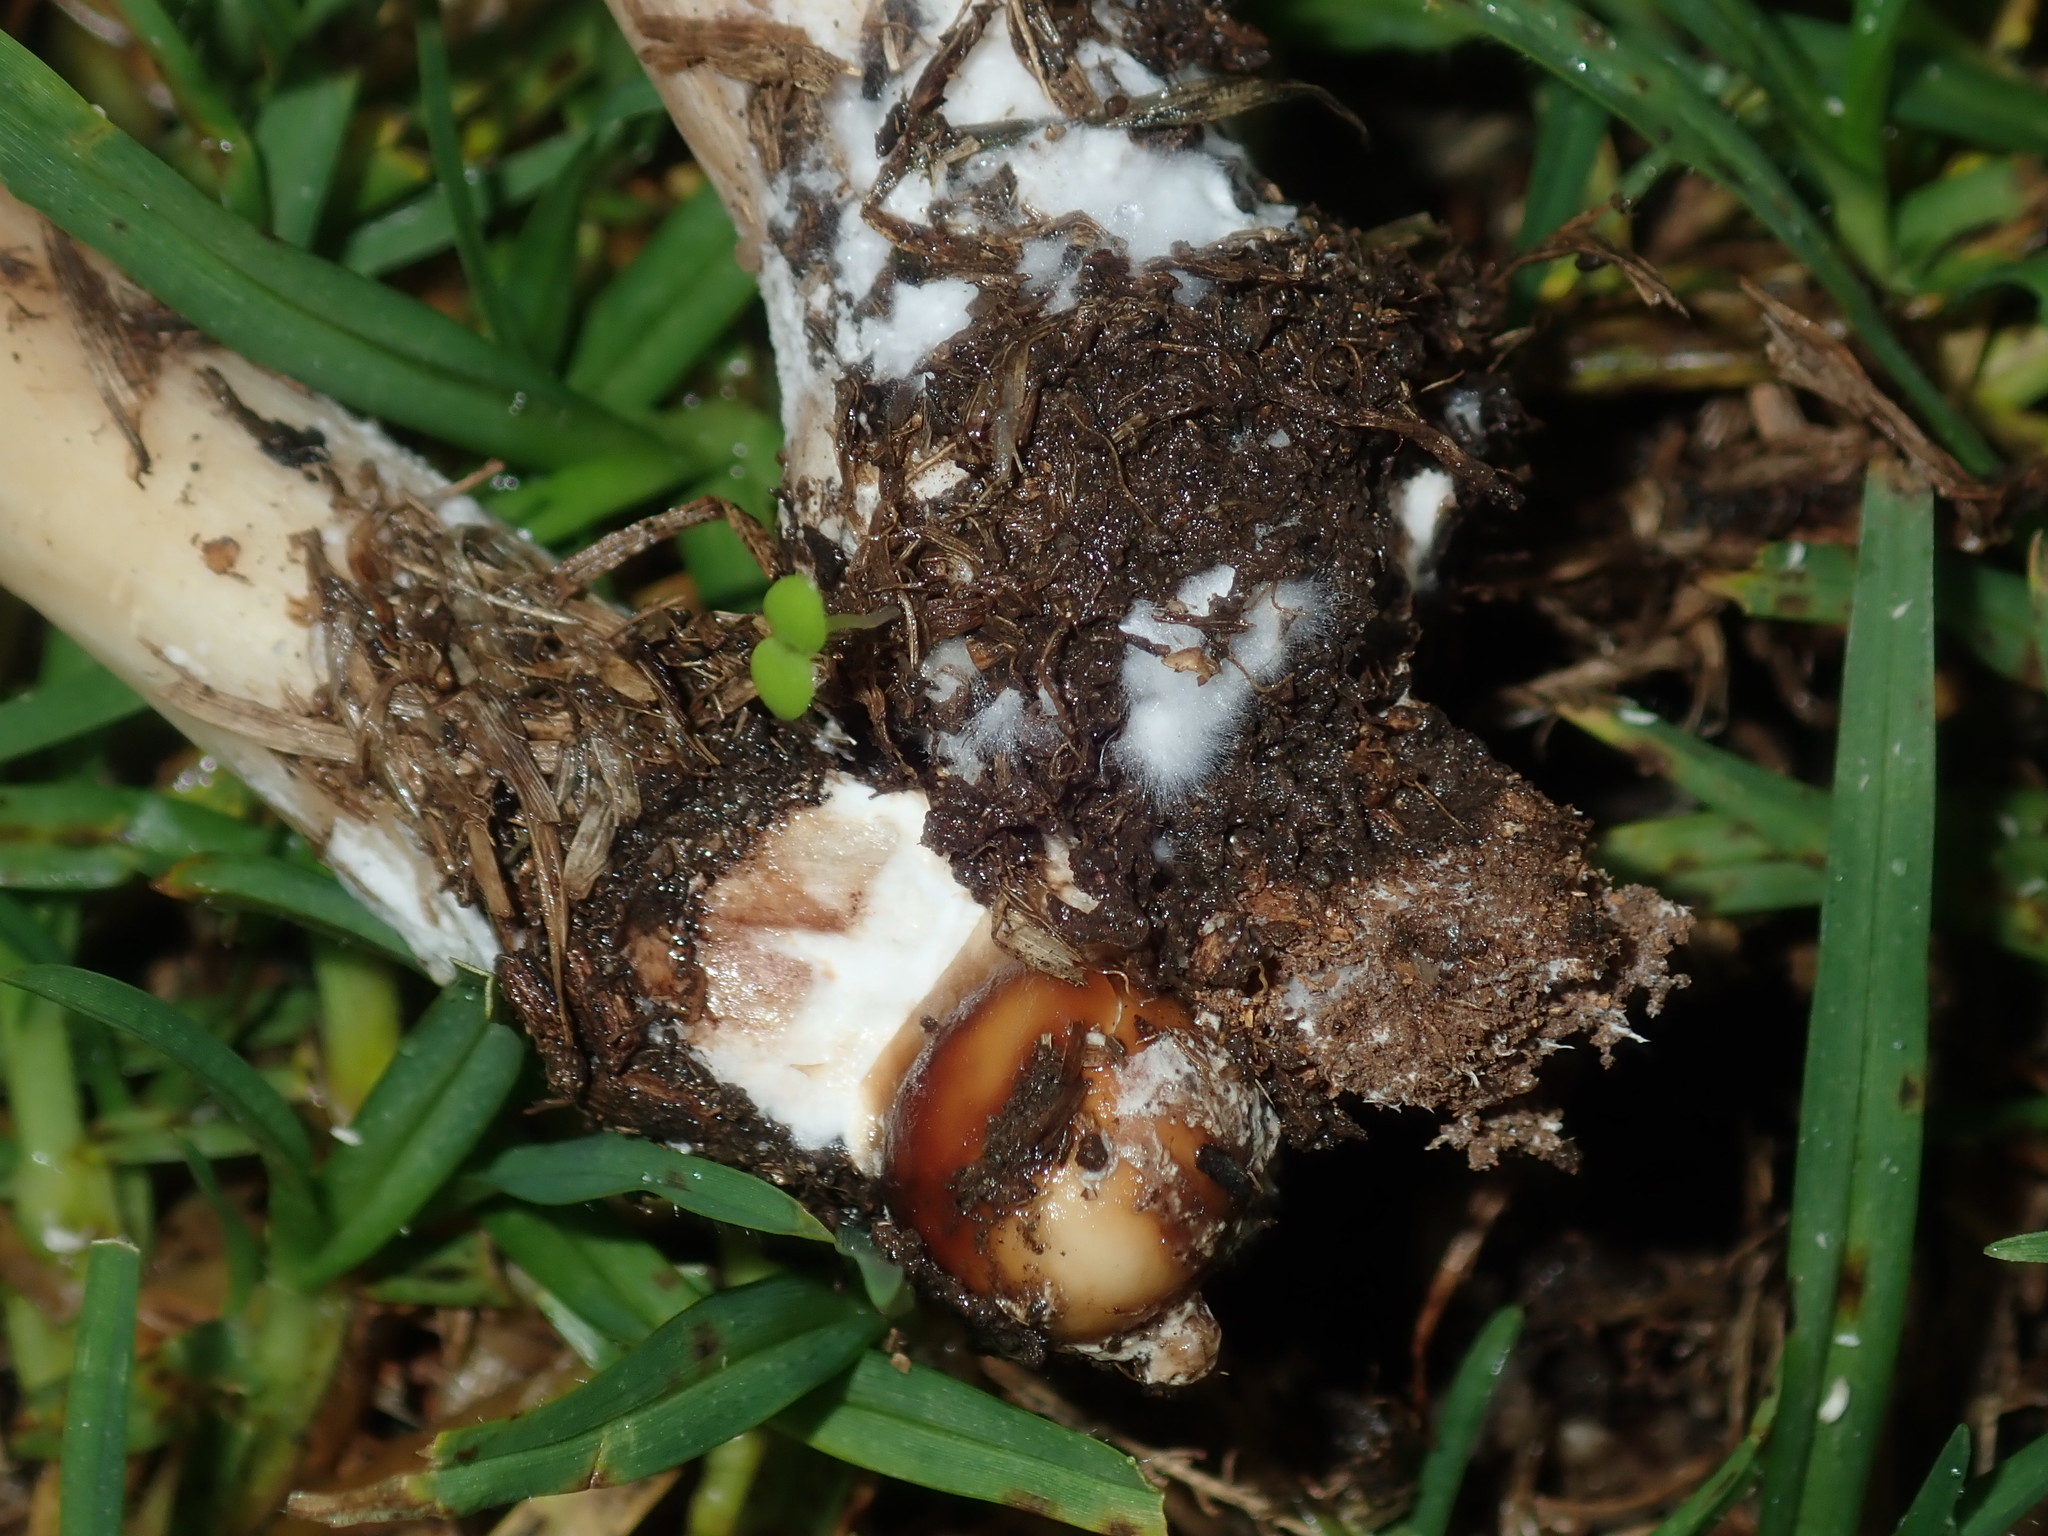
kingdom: Fungi
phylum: Basidiomycota
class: Agaricomycetes
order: Agaricales
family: Agaricaceae
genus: Chlorophyllum
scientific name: Chlorophyllum molybdites
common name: False parasol
